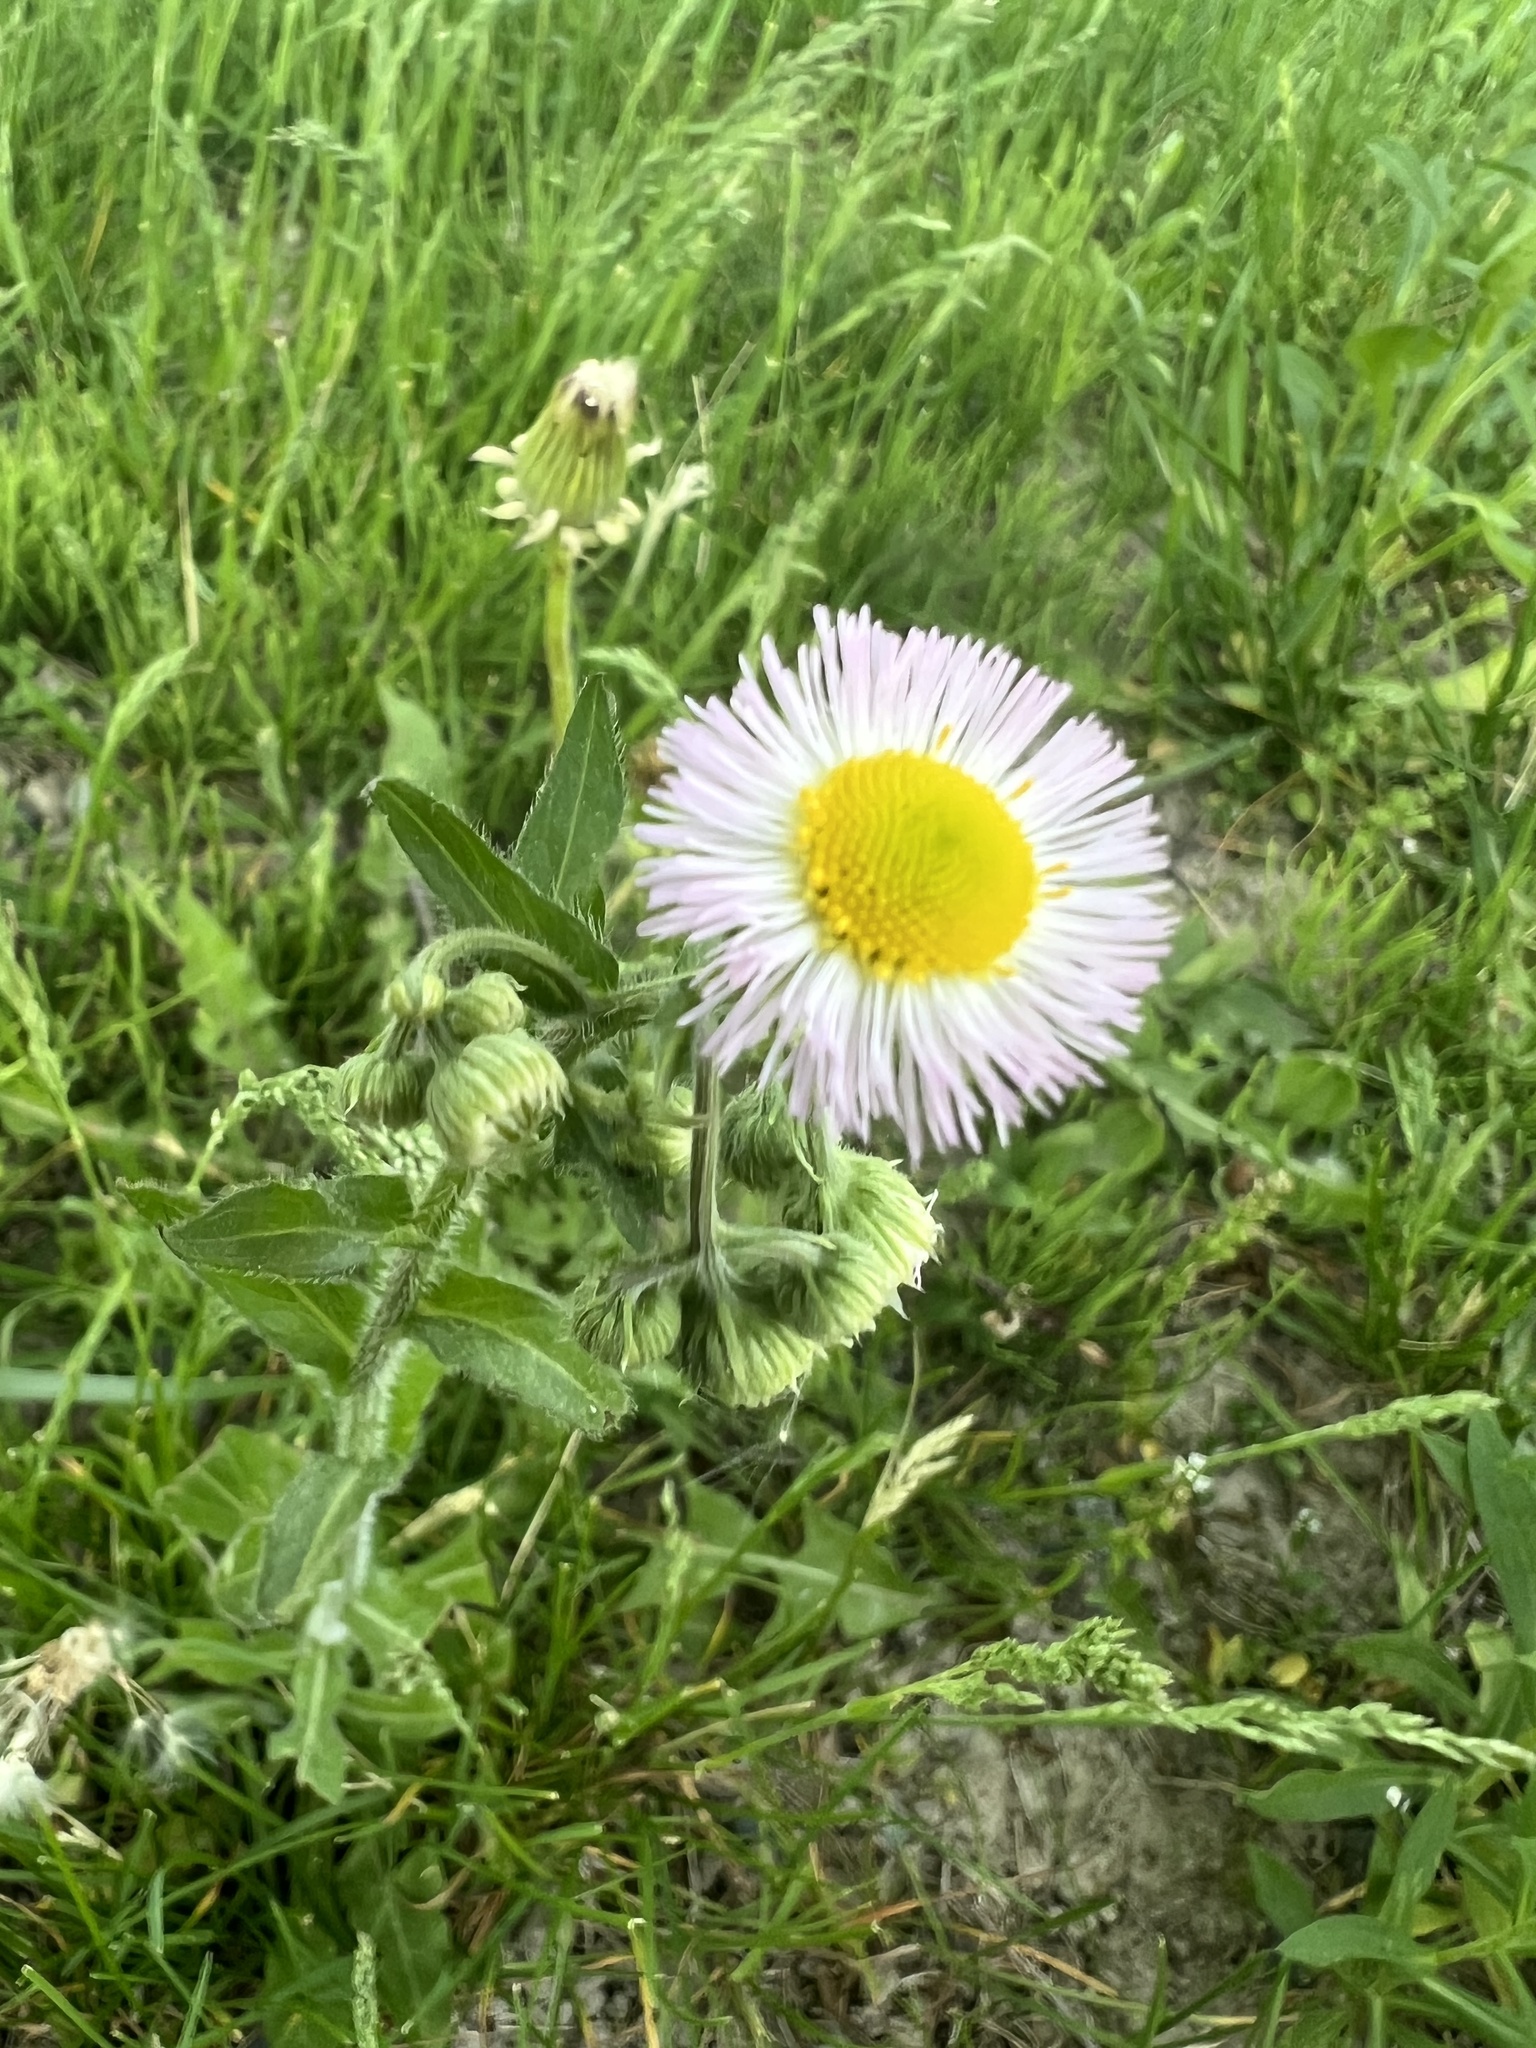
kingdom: Plantae
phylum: Tracheophyta
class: Magnoliopsida
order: Asterales
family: Asteraceae
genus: Erigeron
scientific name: Erigeron philadelphicus
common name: Robin's-plantain
